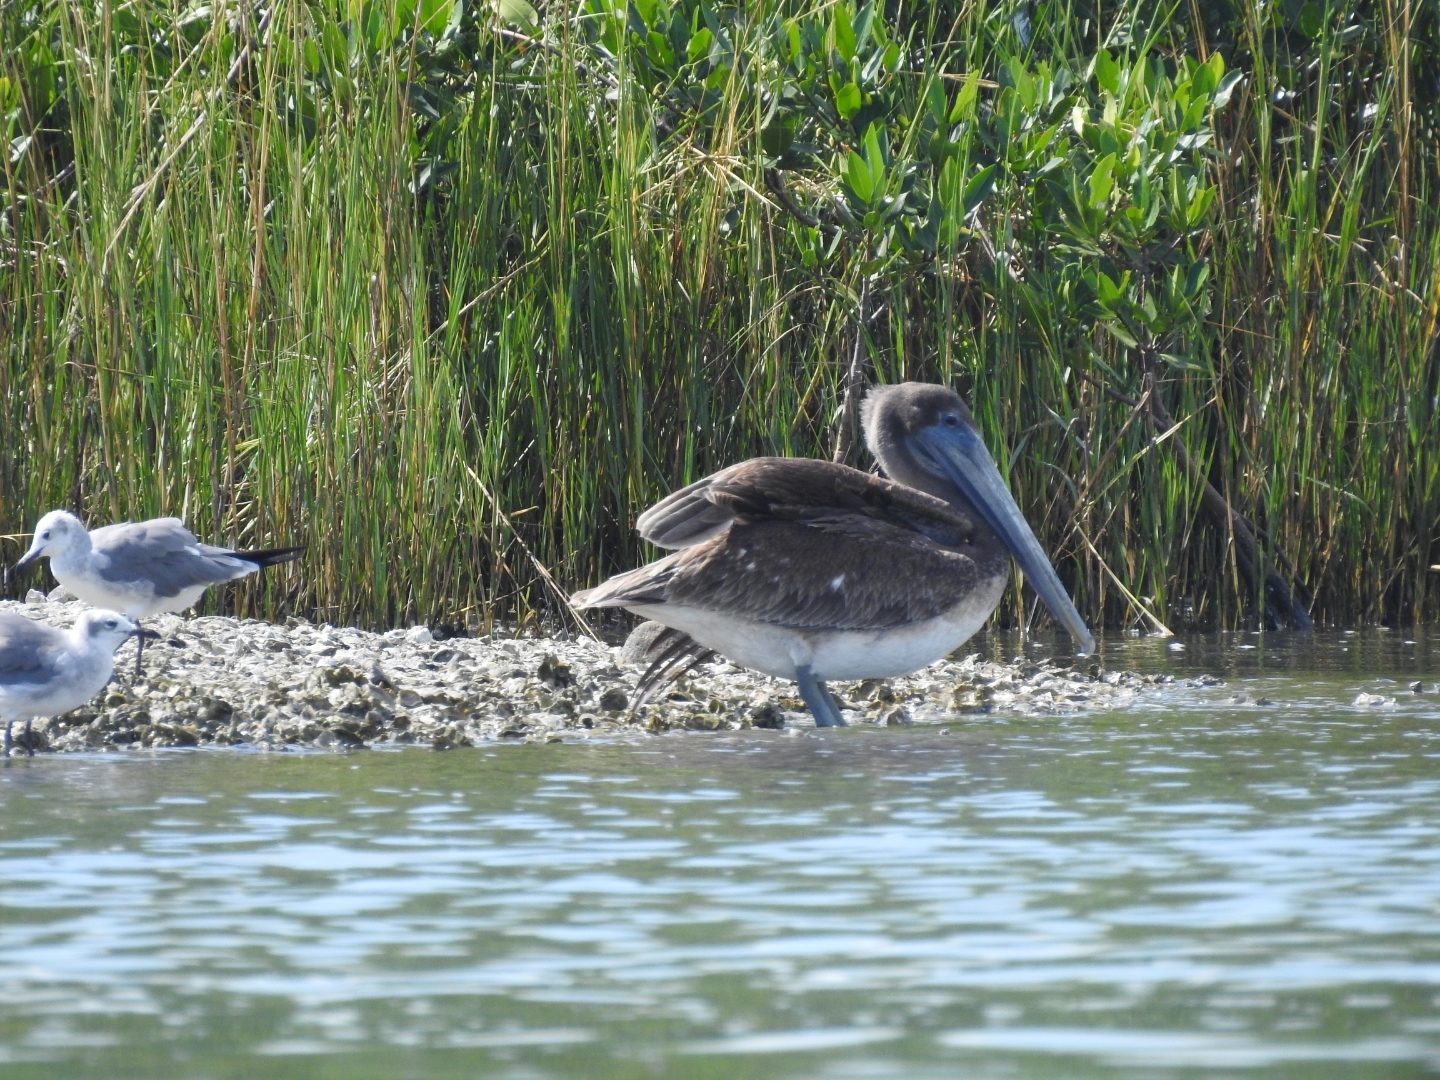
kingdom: Animalia
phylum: Chordata
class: Aves
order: Pelecaniformes
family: Pelecanidae
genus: Pelecanus
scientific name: Pelecanus occidentalis
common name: Brown pelican
